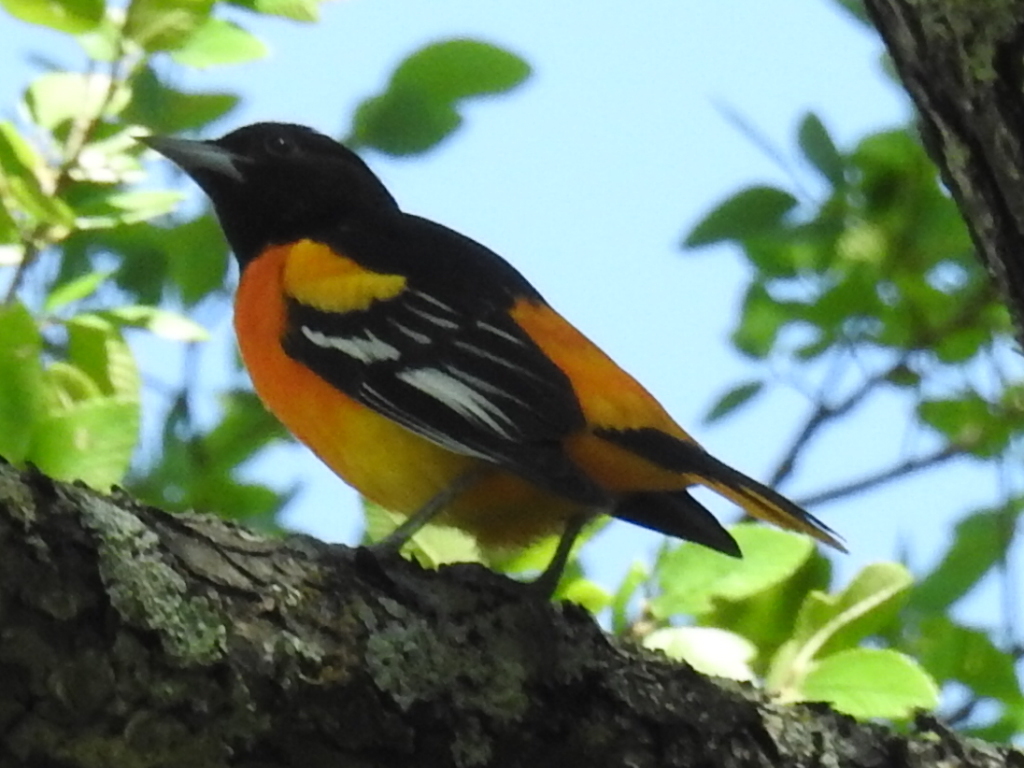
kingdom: Animalia
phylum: Chordata
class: Aves
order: Passeriformes
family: Icteridae
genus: Icterus
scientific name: Icterus galbula
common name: Baltimore oriole
